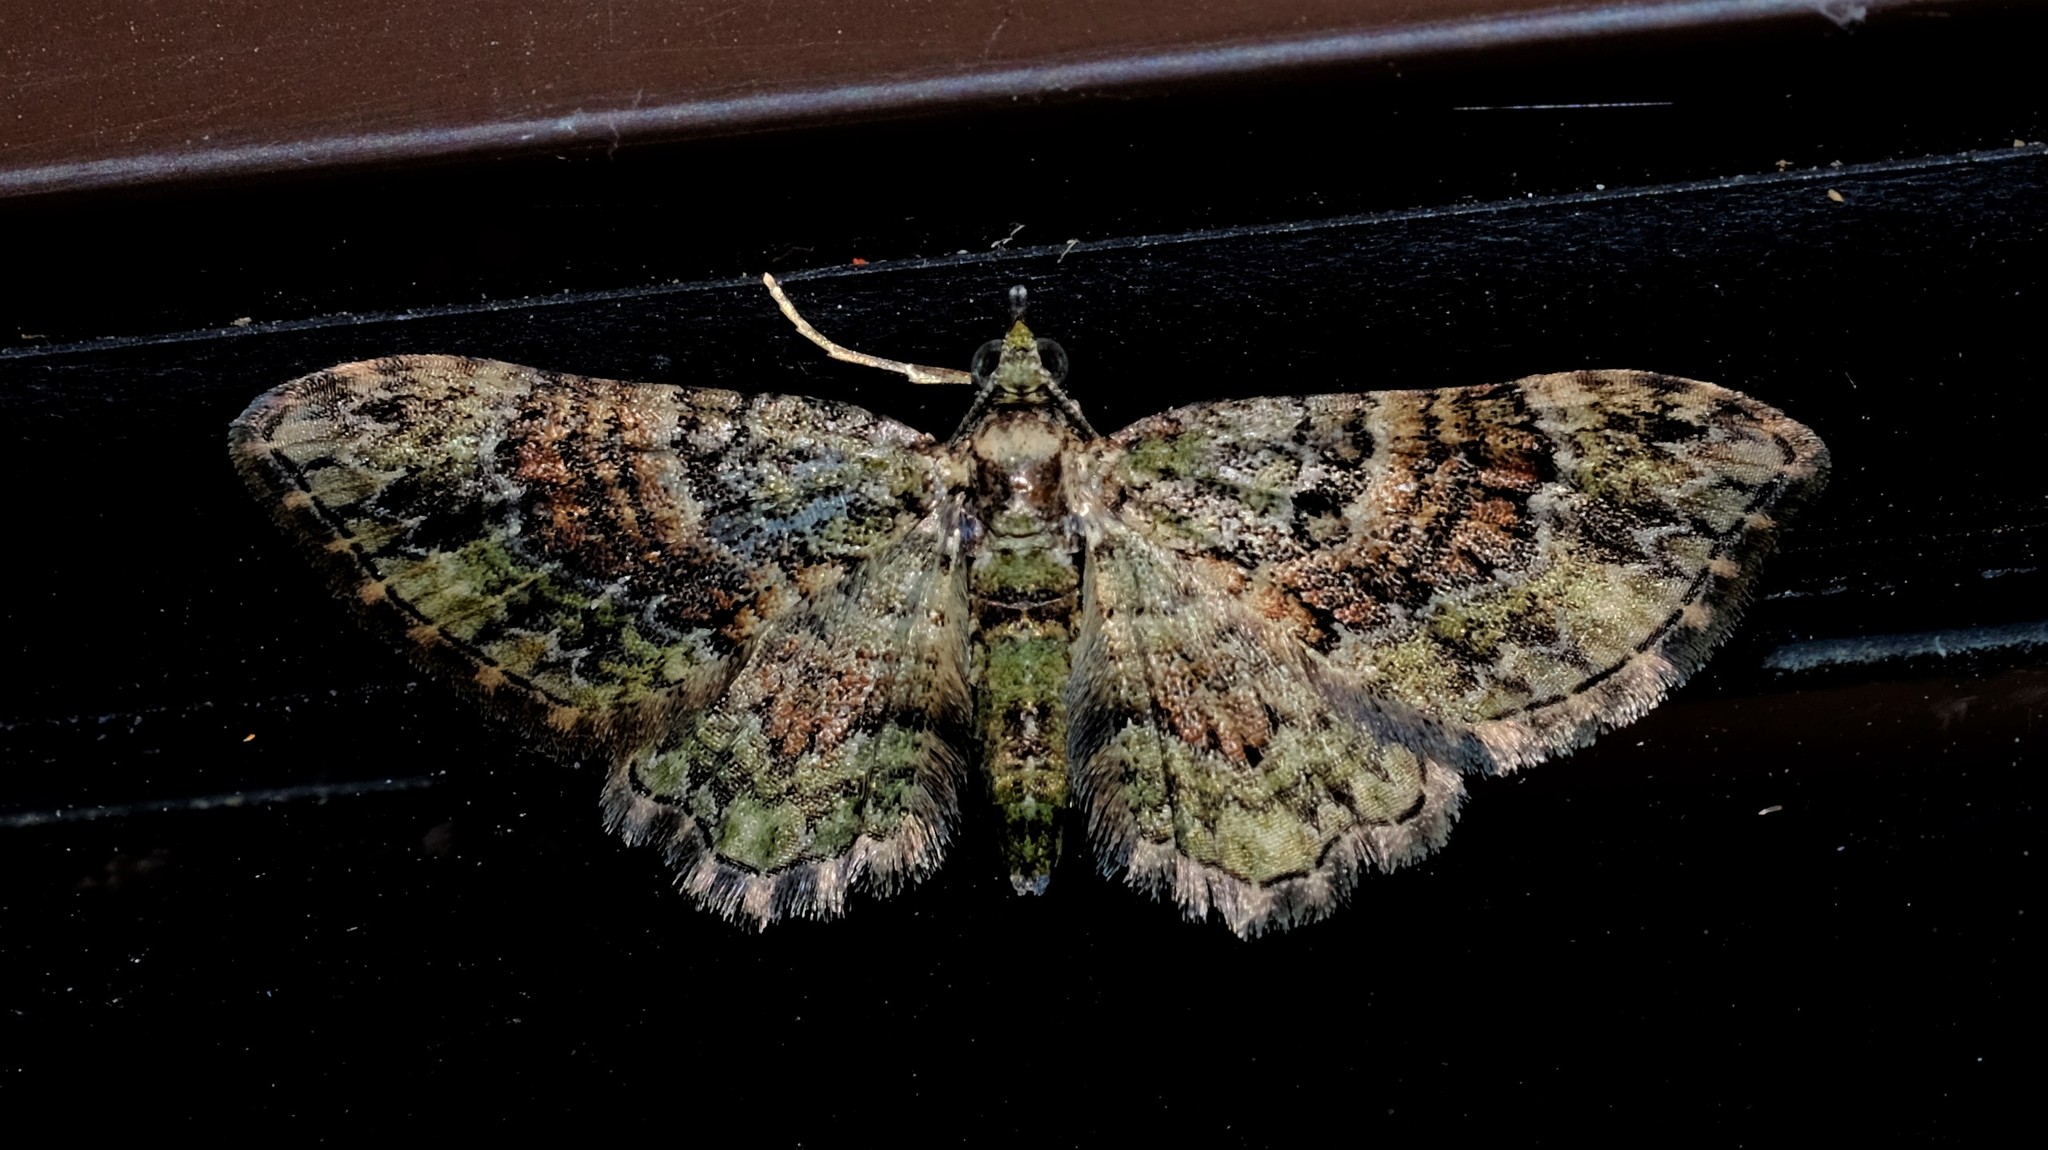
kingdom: Animalia
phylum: Arthropoda
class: Insecta
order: Lepidoptera
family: Geometridae
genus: Chloroclystis
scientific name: Chloroclystis catastreptes
